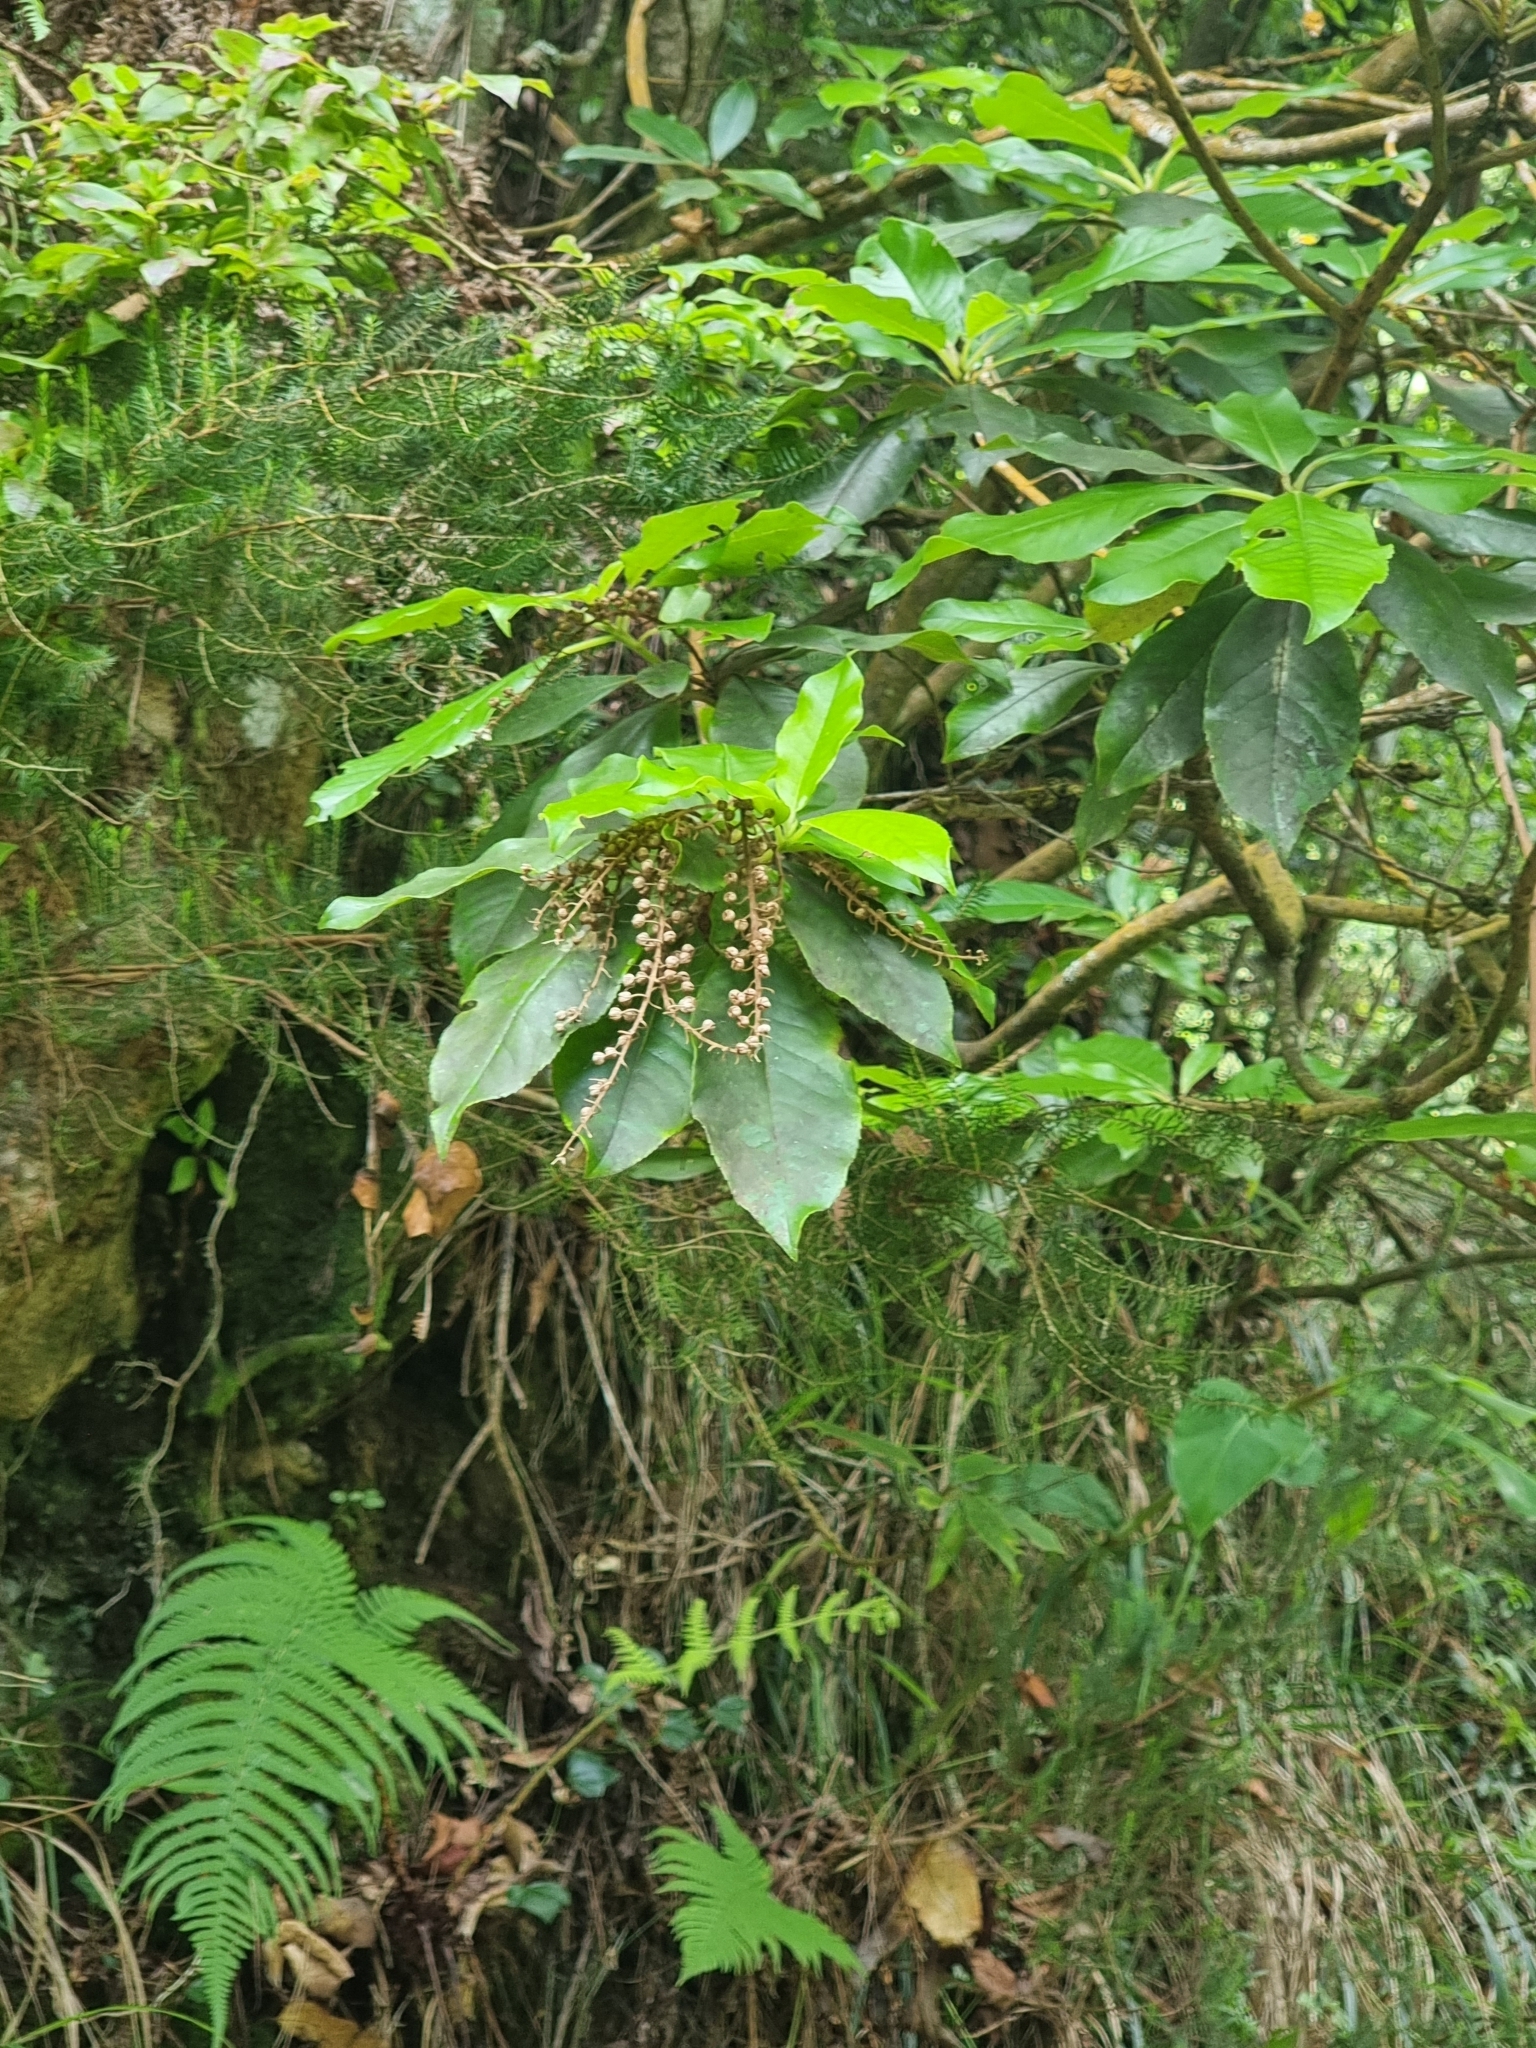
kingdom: Plantae
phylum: Tracheophyta
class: Magnoliopsida
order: Ericales
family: Clethraceae
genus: Clethra
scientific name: Clethra arborea
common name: Lily-of-the-valley-tree
